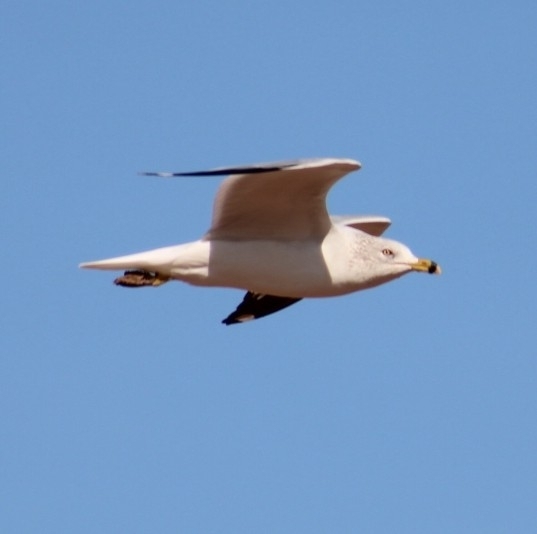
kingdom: Animalia
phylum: Chordata
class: Aves
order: Charadriiformes
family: Laridae
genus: Larus
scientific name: Larus delawarensis
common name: Ring-billed gull
